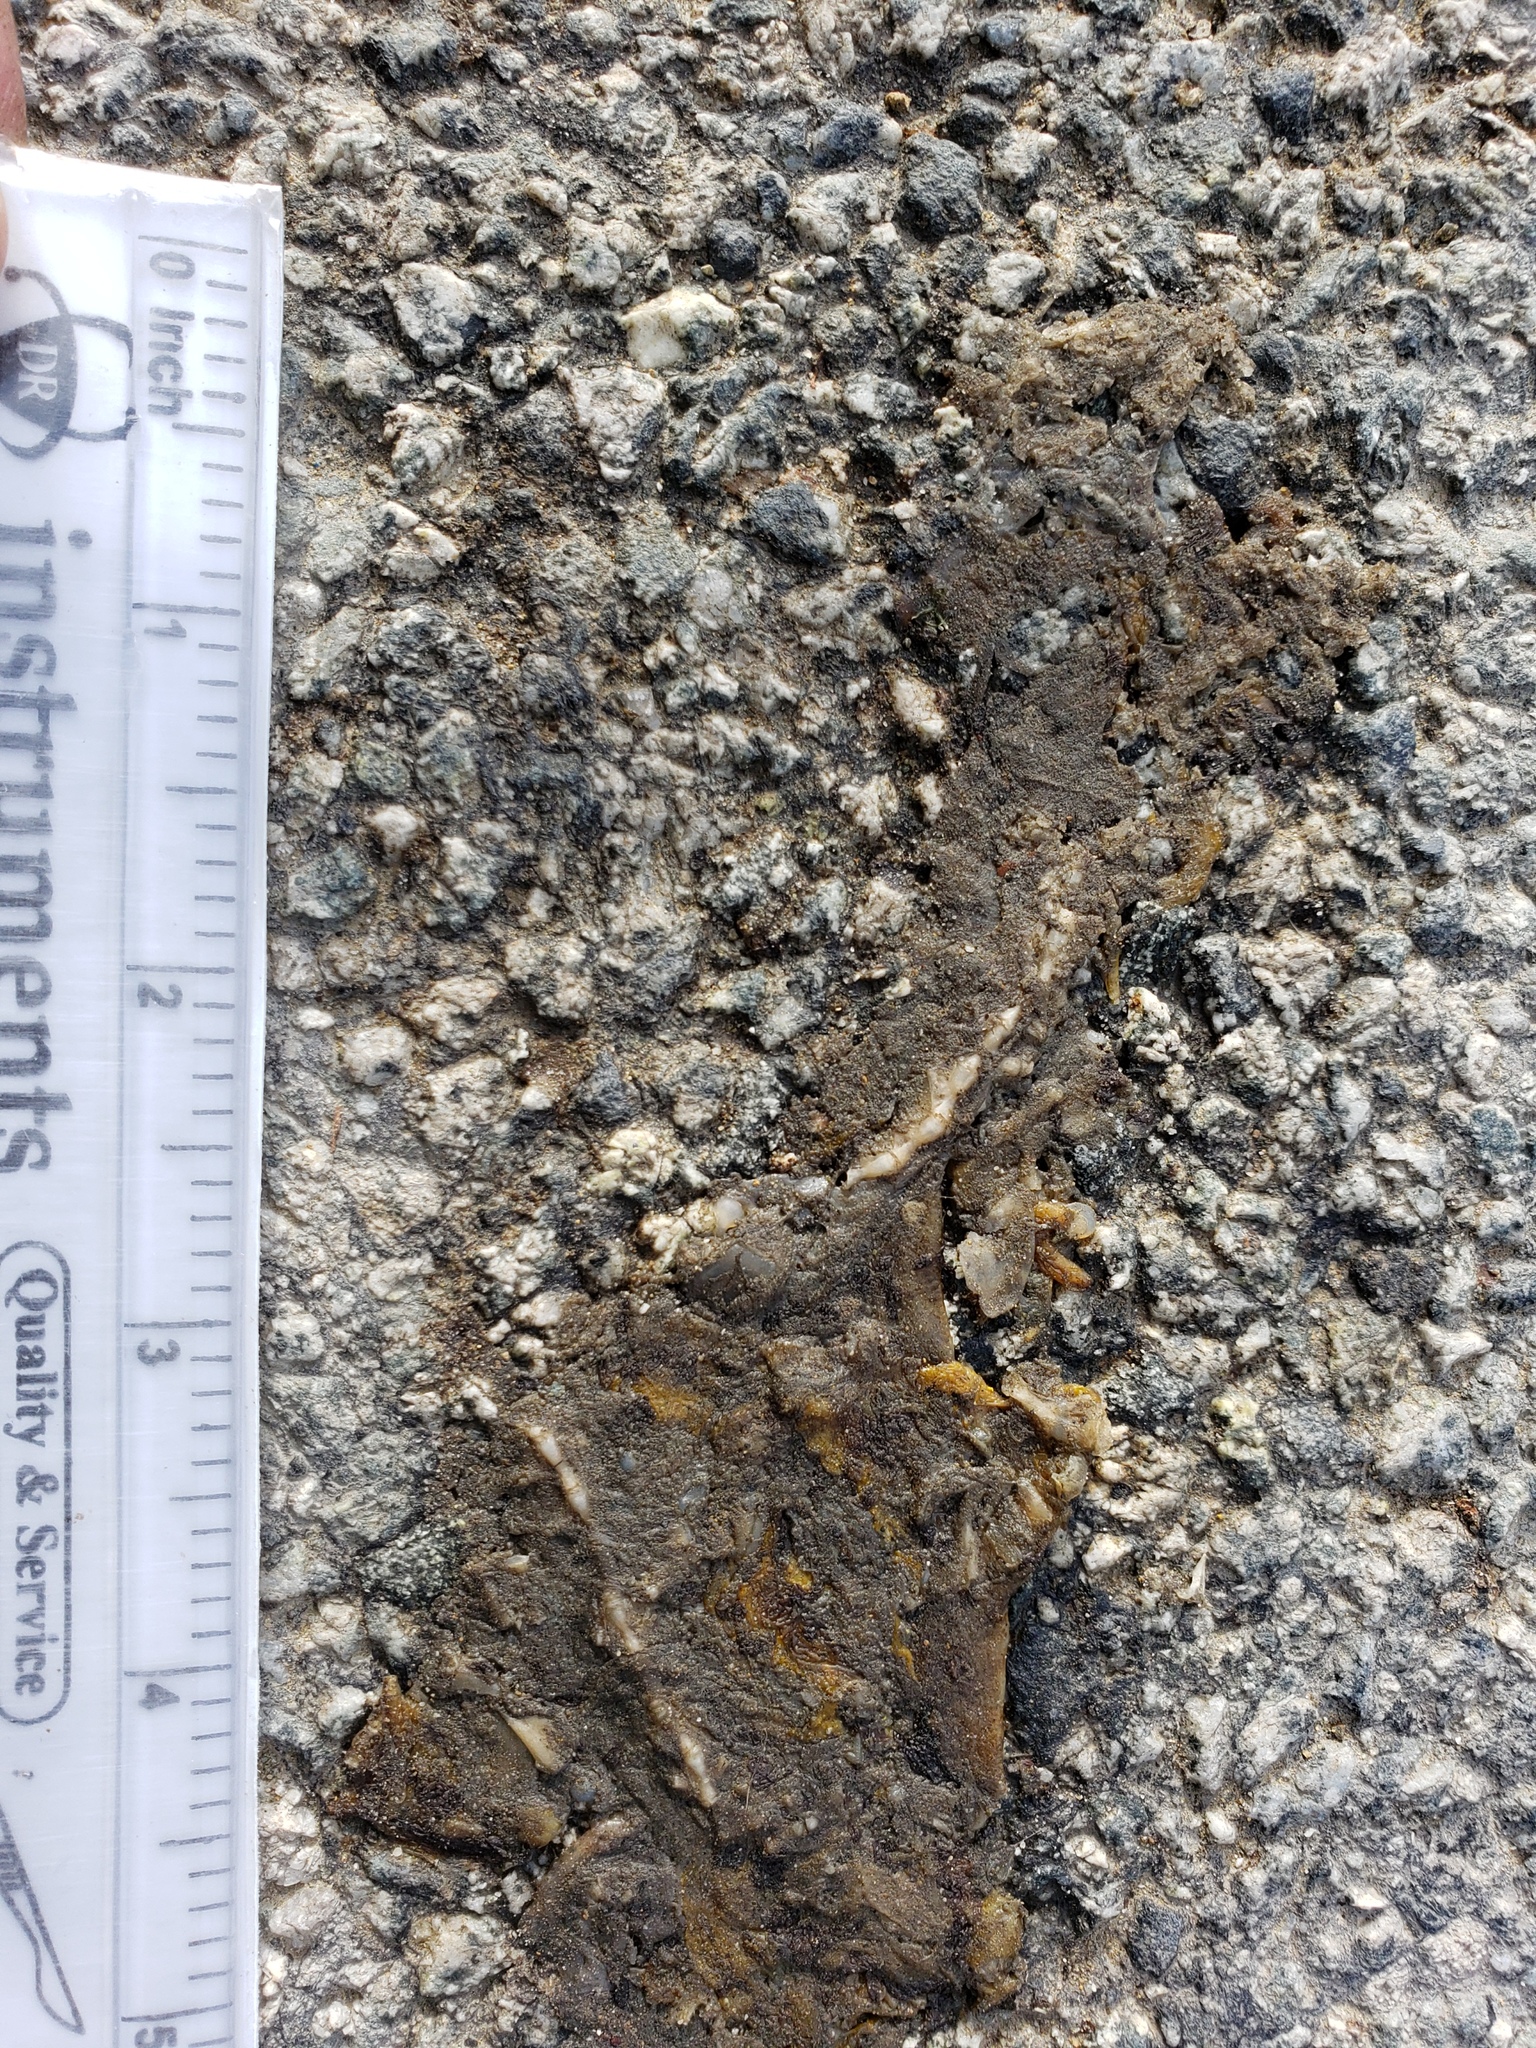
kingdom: Animalia
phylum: Chordata
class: Amphibia
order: Caudata
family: Salamandridae
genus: Taricha
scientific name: Taricha
